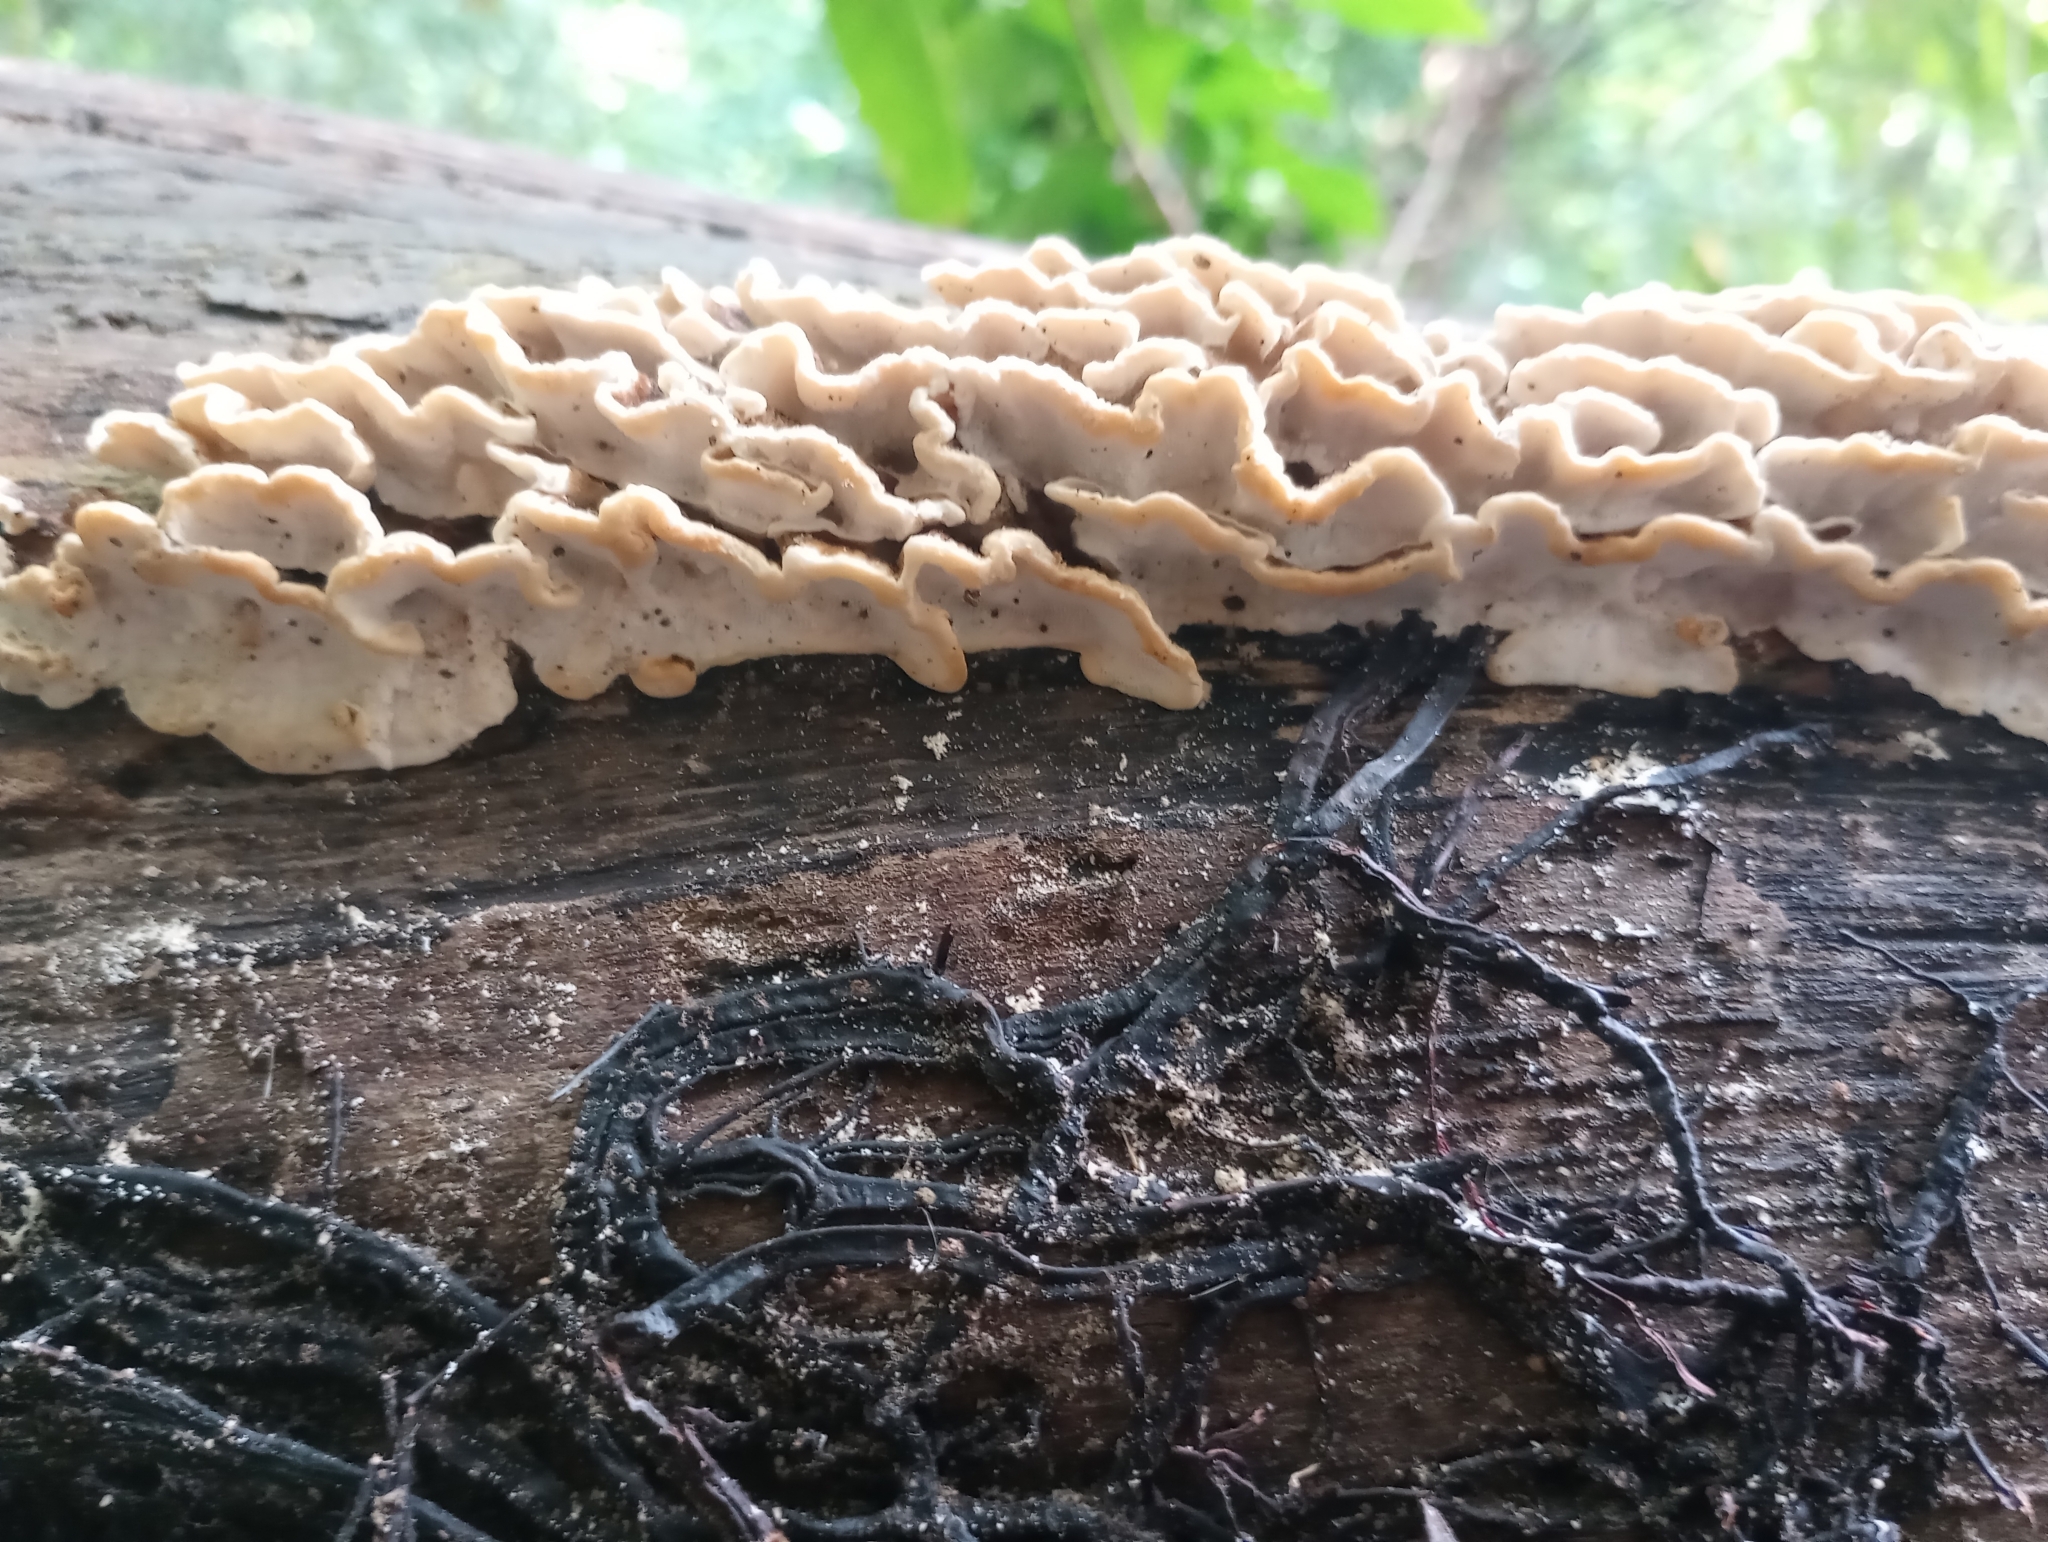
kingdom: Fungi
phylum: Basidiomycota
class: Agaricomycetes
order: Polyporales
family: Polyporaceae
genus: Trametes
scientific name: Trametes versicolor
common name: Turkeytail
